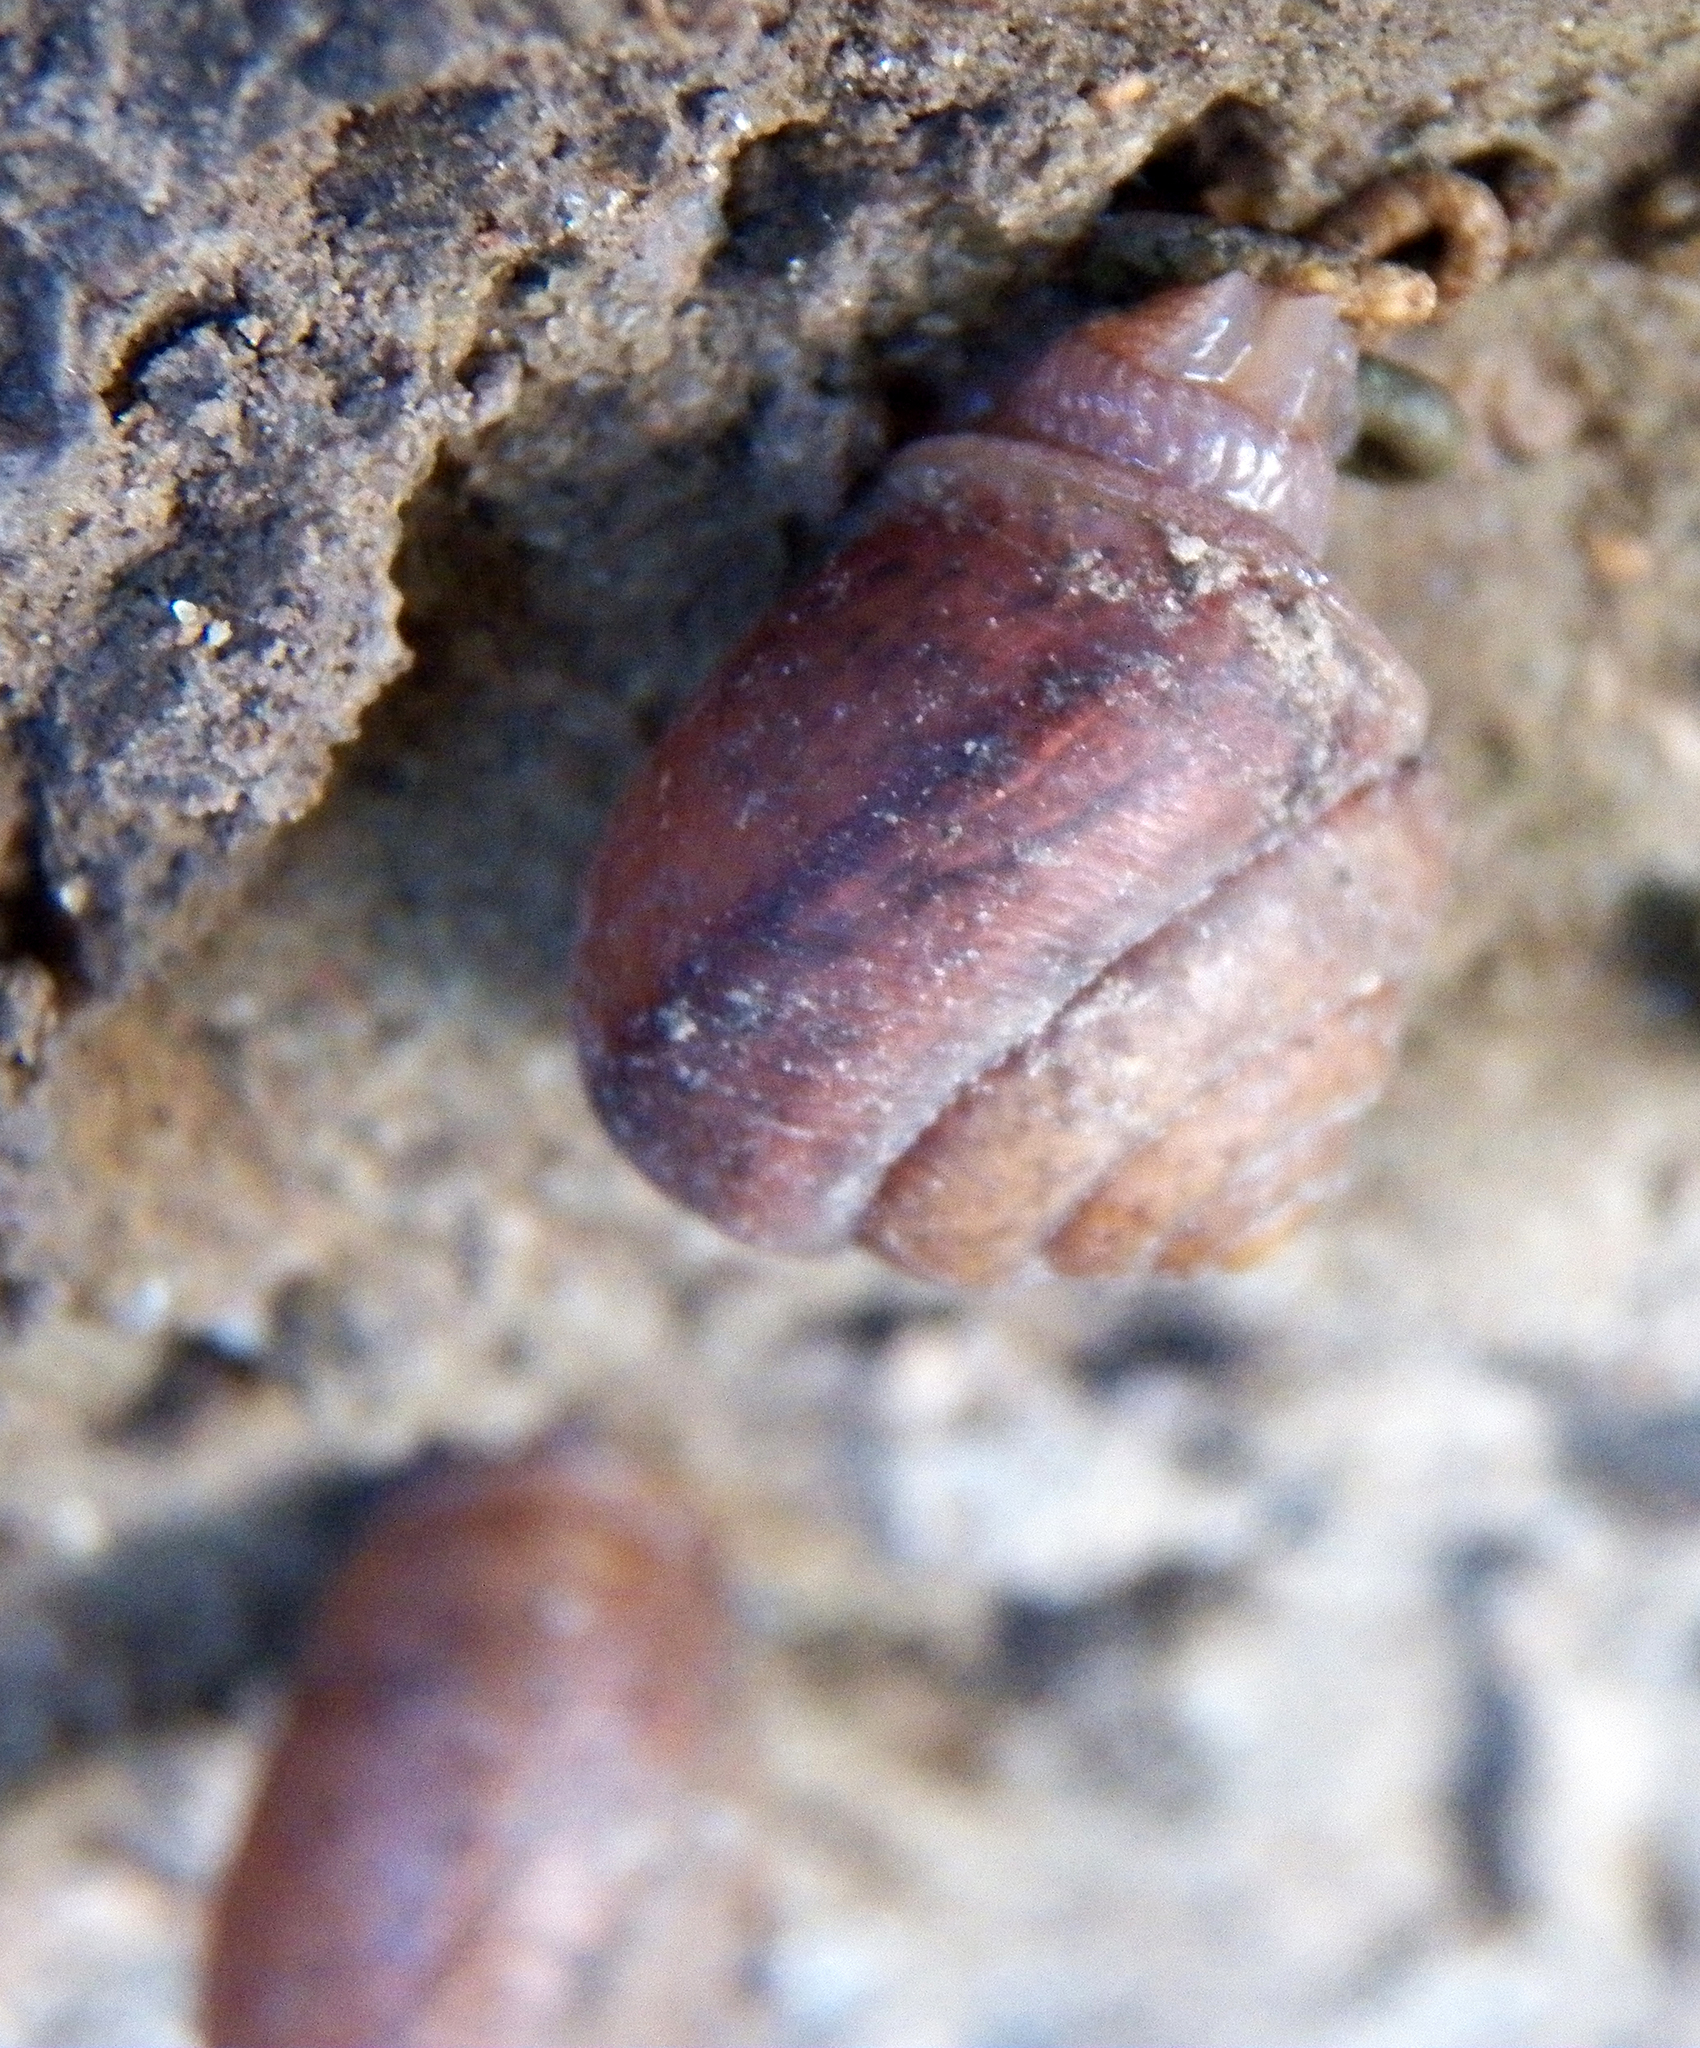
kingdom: Animalia
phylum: Mollusca
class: Gastropoda
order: Stylommatophora
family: Camaenidae
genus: Bradybaena
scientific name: Bradybaena similaris
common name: Asian trampsnail
